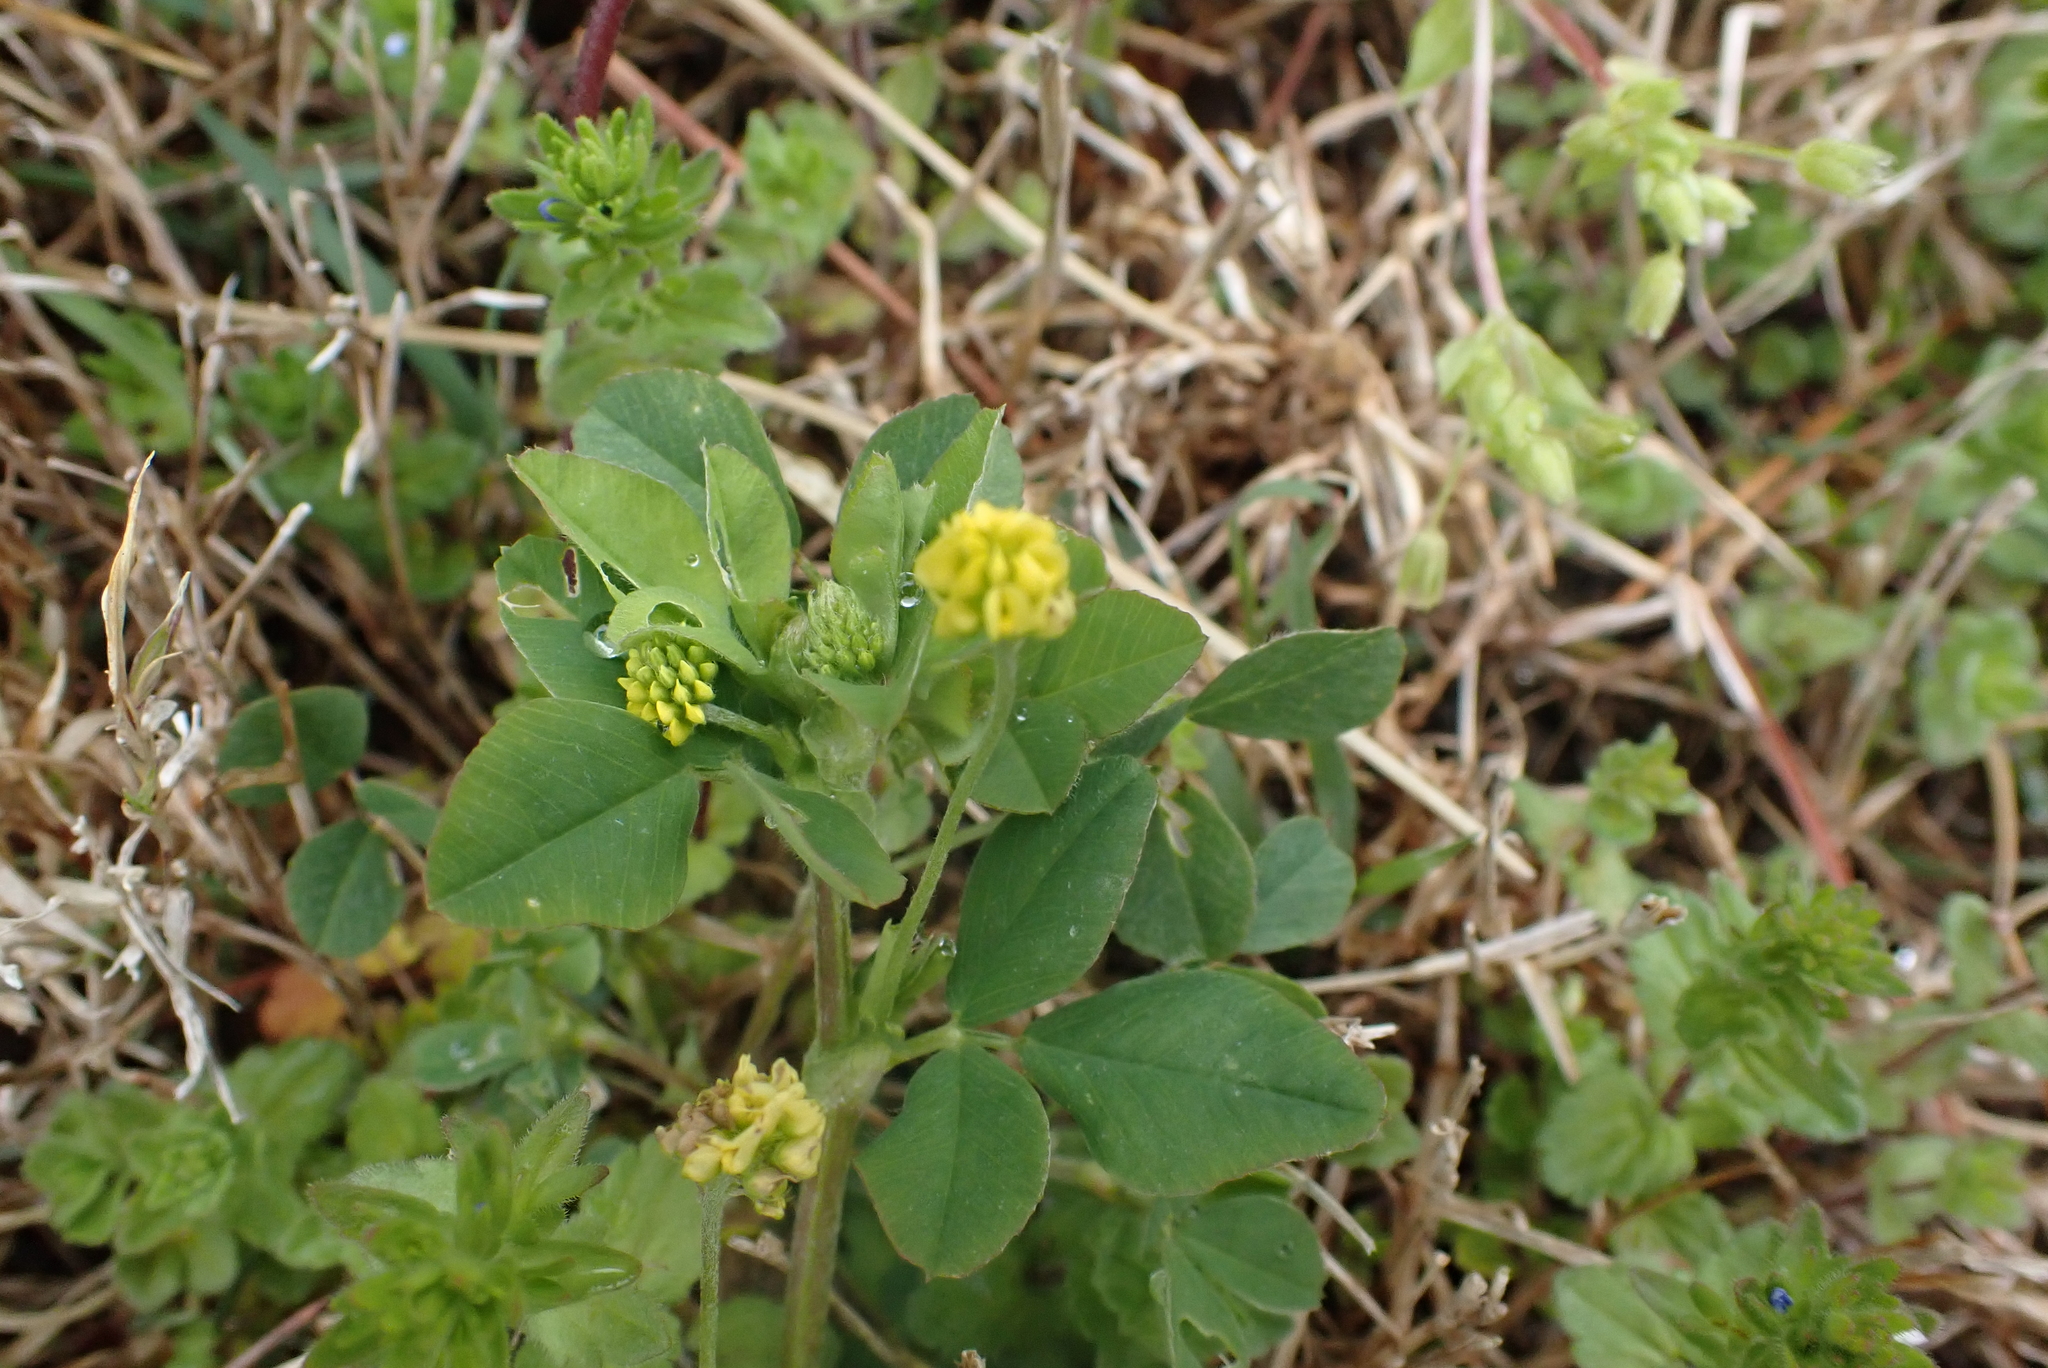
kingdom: Plantae
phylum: Tracheophyta
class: Magnoliopsida
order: Fabales
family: Fabaceae
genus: Medicago
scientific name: Medicago lupulina
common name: Black medick
